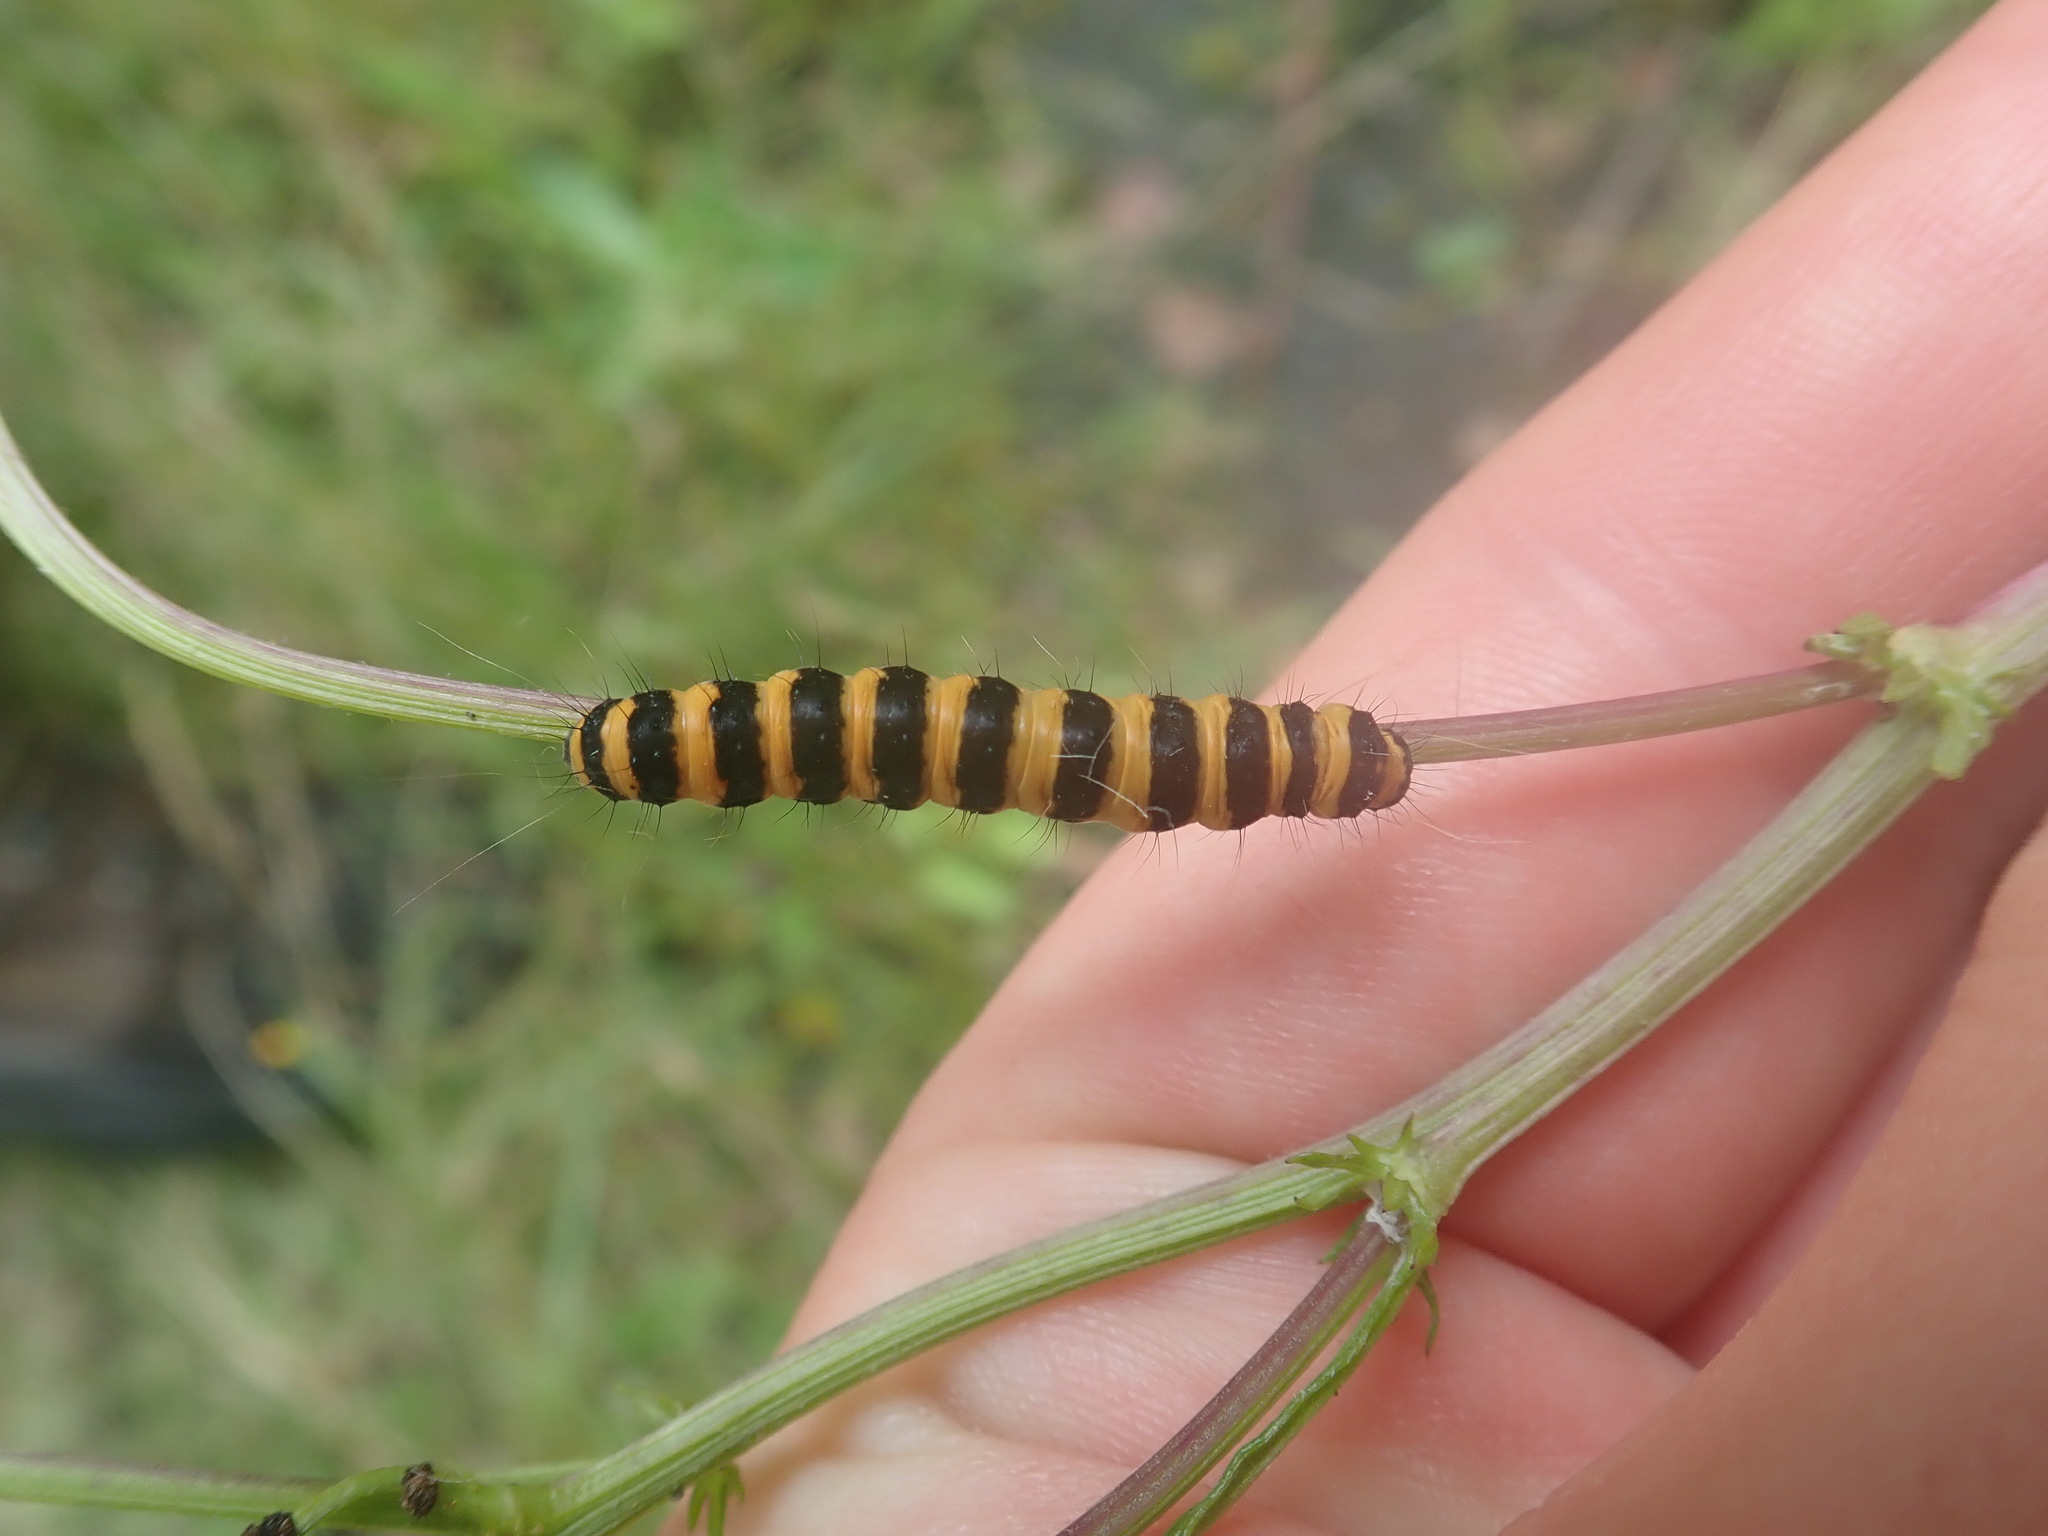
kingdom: Animalia
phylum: Arthropoda
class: Insecta
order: Lepidoptera
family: Erebidae
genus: Tyria
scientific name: Tyria jacobaeae
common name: Cinnabar
